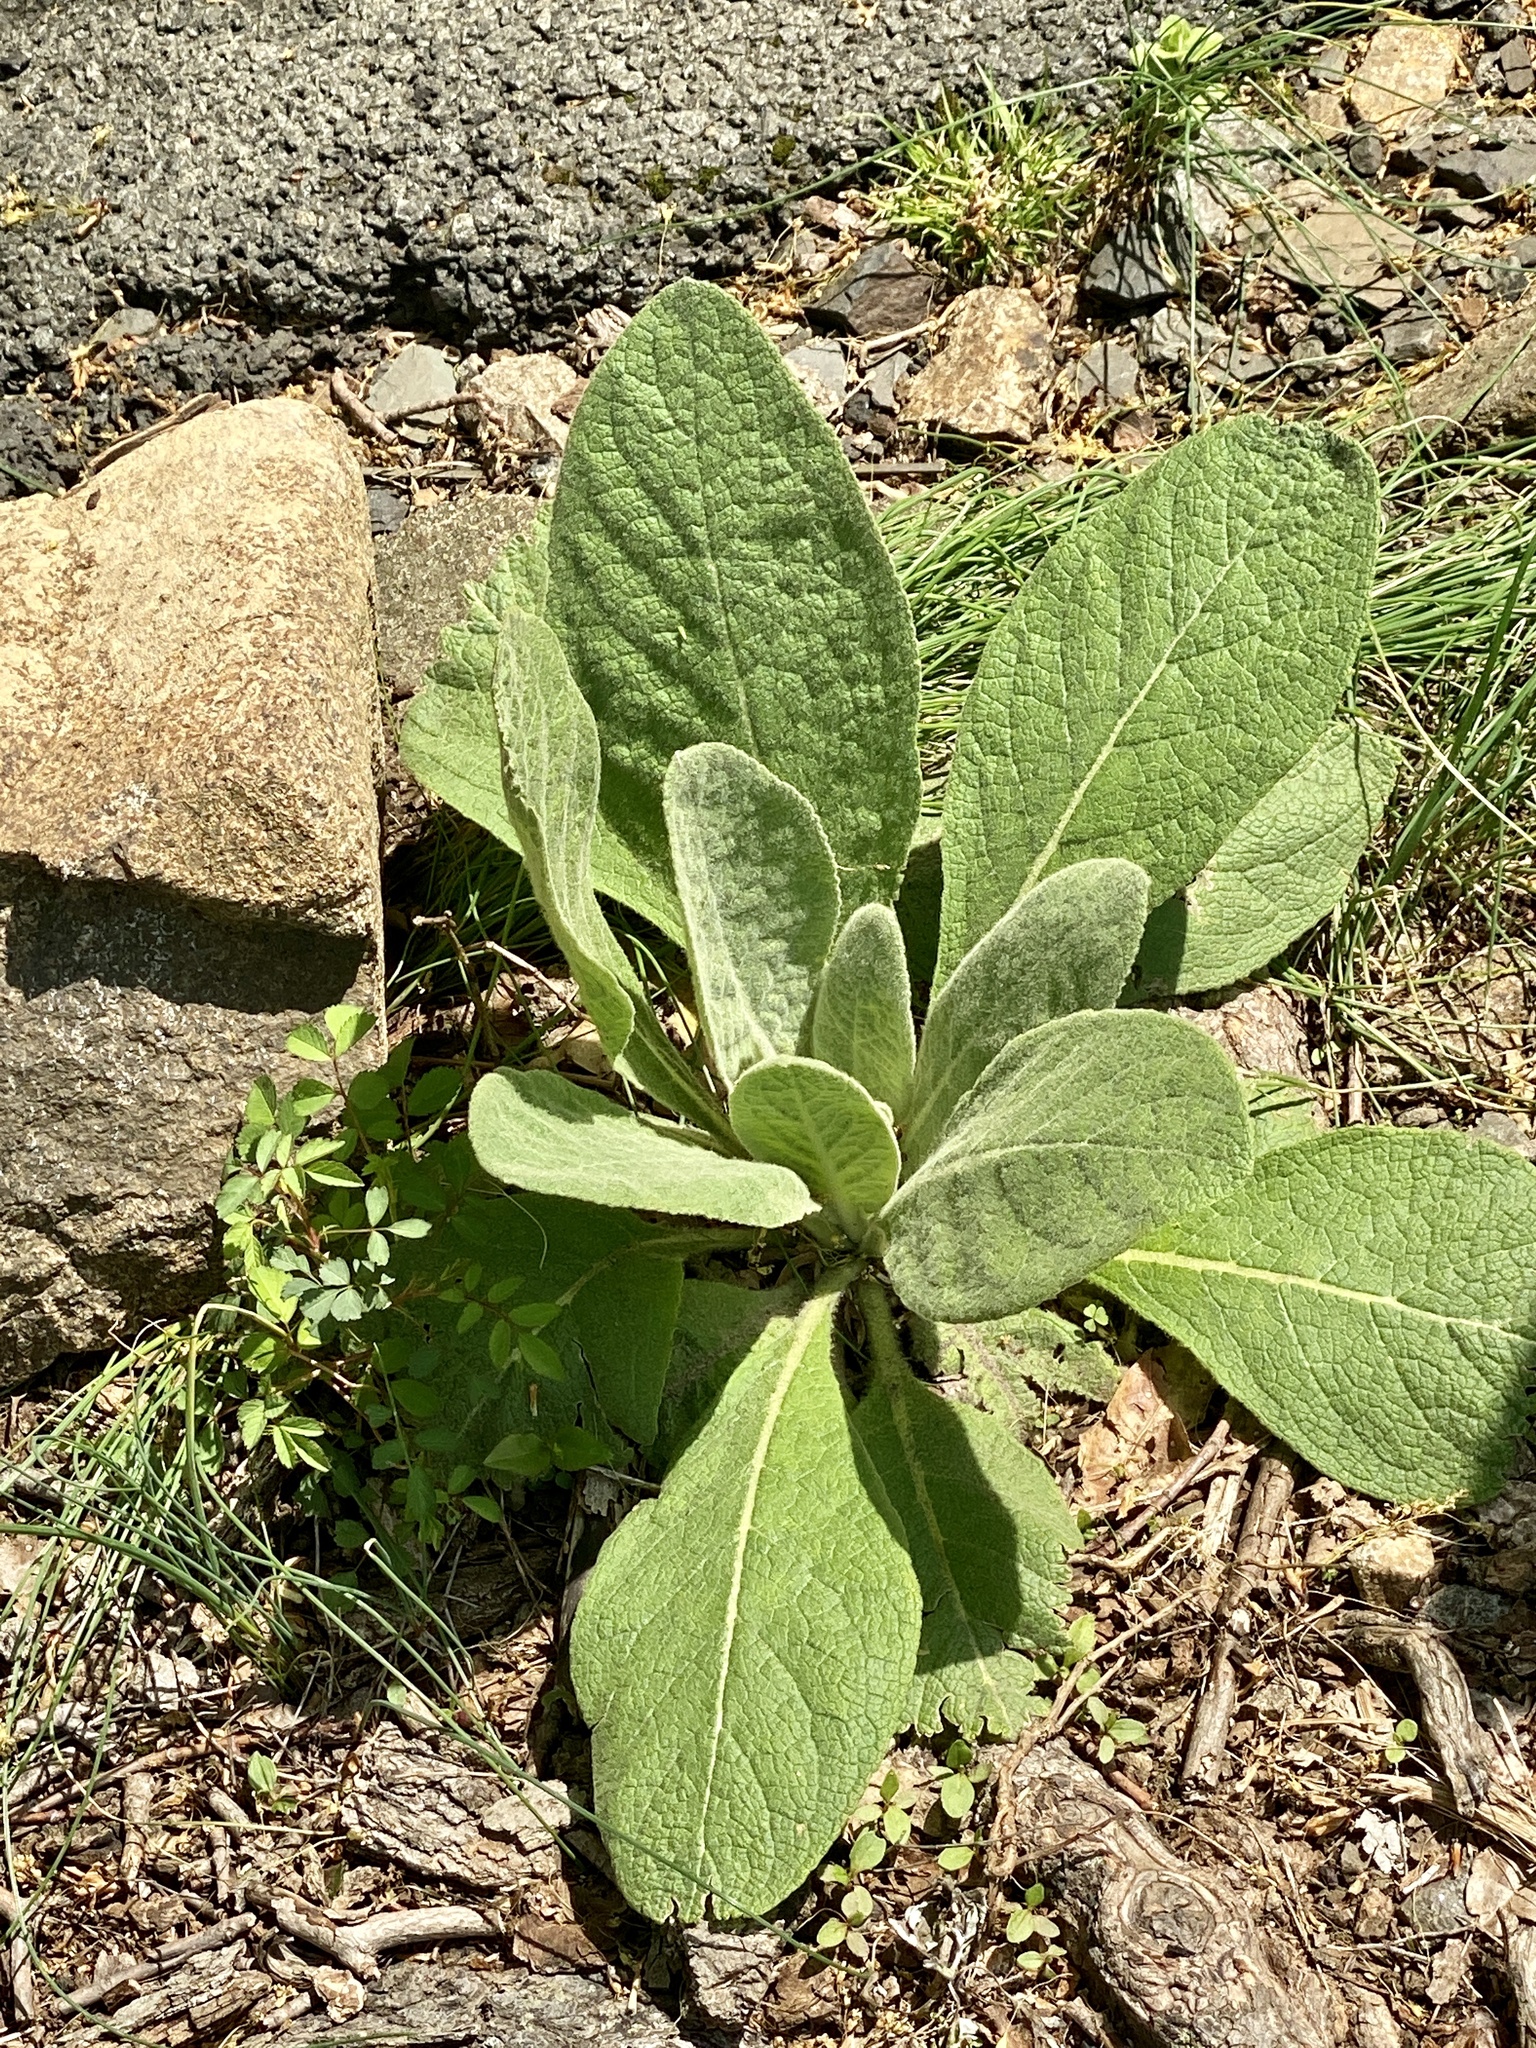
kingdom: Plantae
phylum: Tracheophyta
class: Magnoliopsida
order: Lamiales
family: Scrophulariaceae
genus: Verbascum
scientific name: Verbascum thapsus
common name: Common mullein
